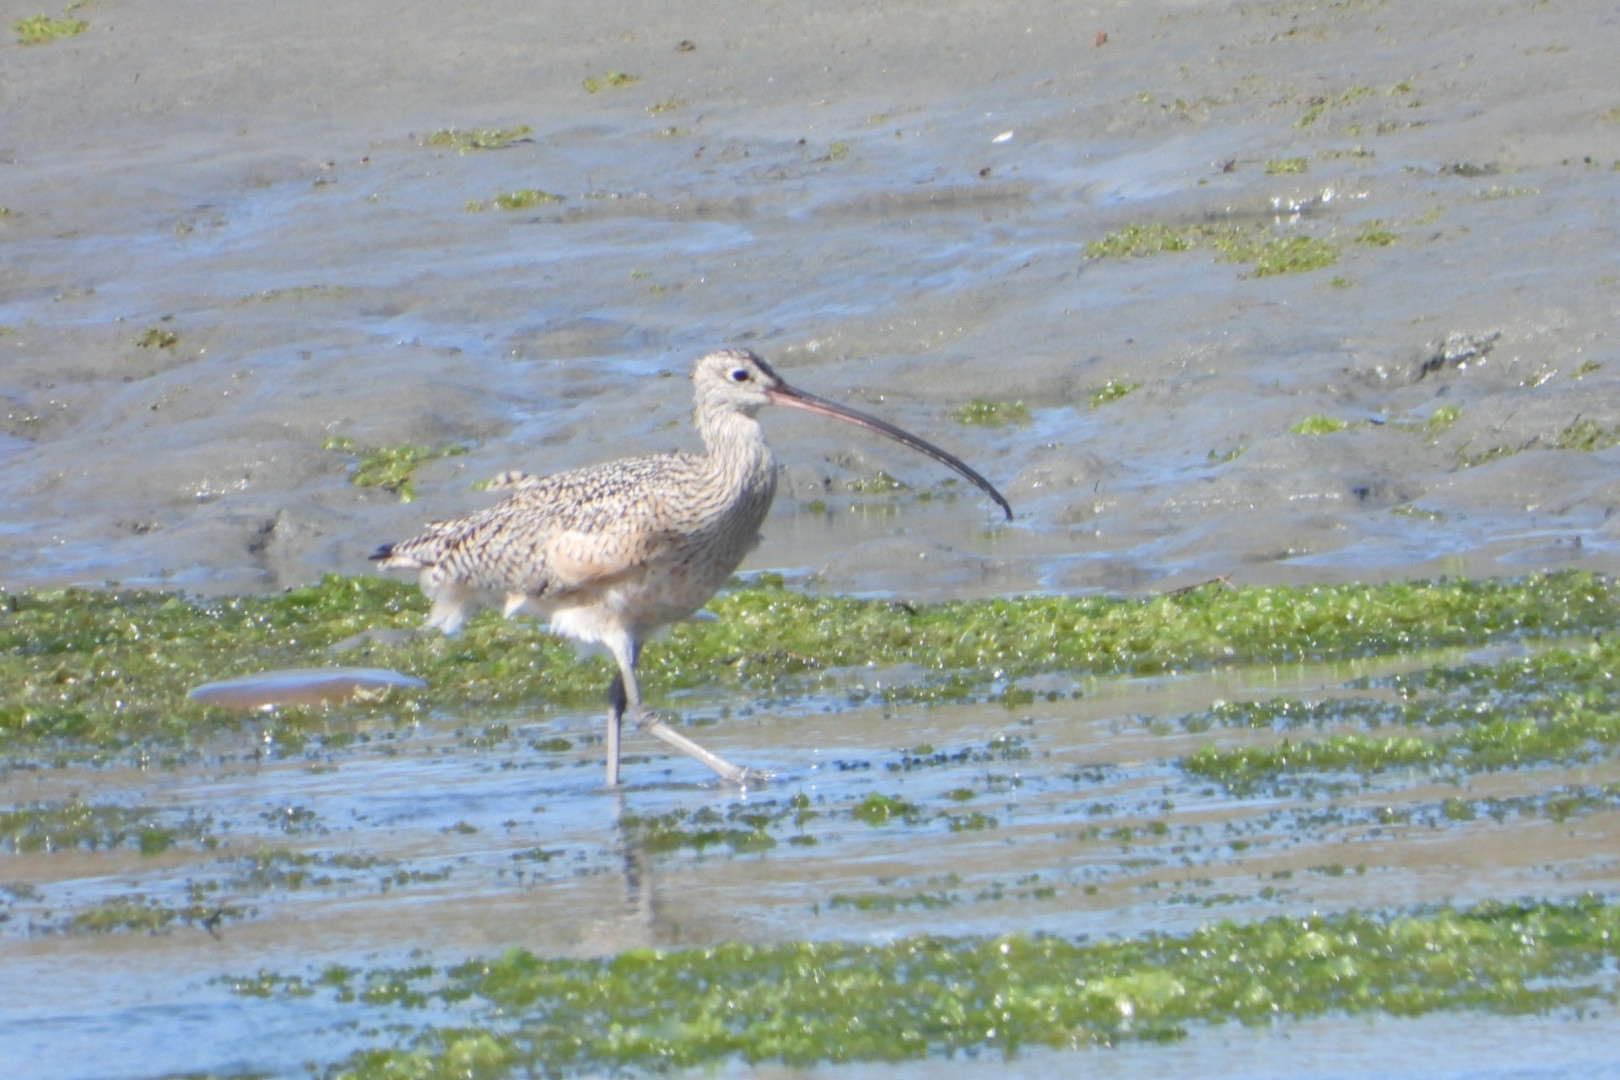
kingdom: Animalia
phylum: Chordata
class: Aves
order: Charadriiformes
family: Scolopacidae
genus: Numenius
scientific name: Numenius americanus
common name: Long-billed curlew
